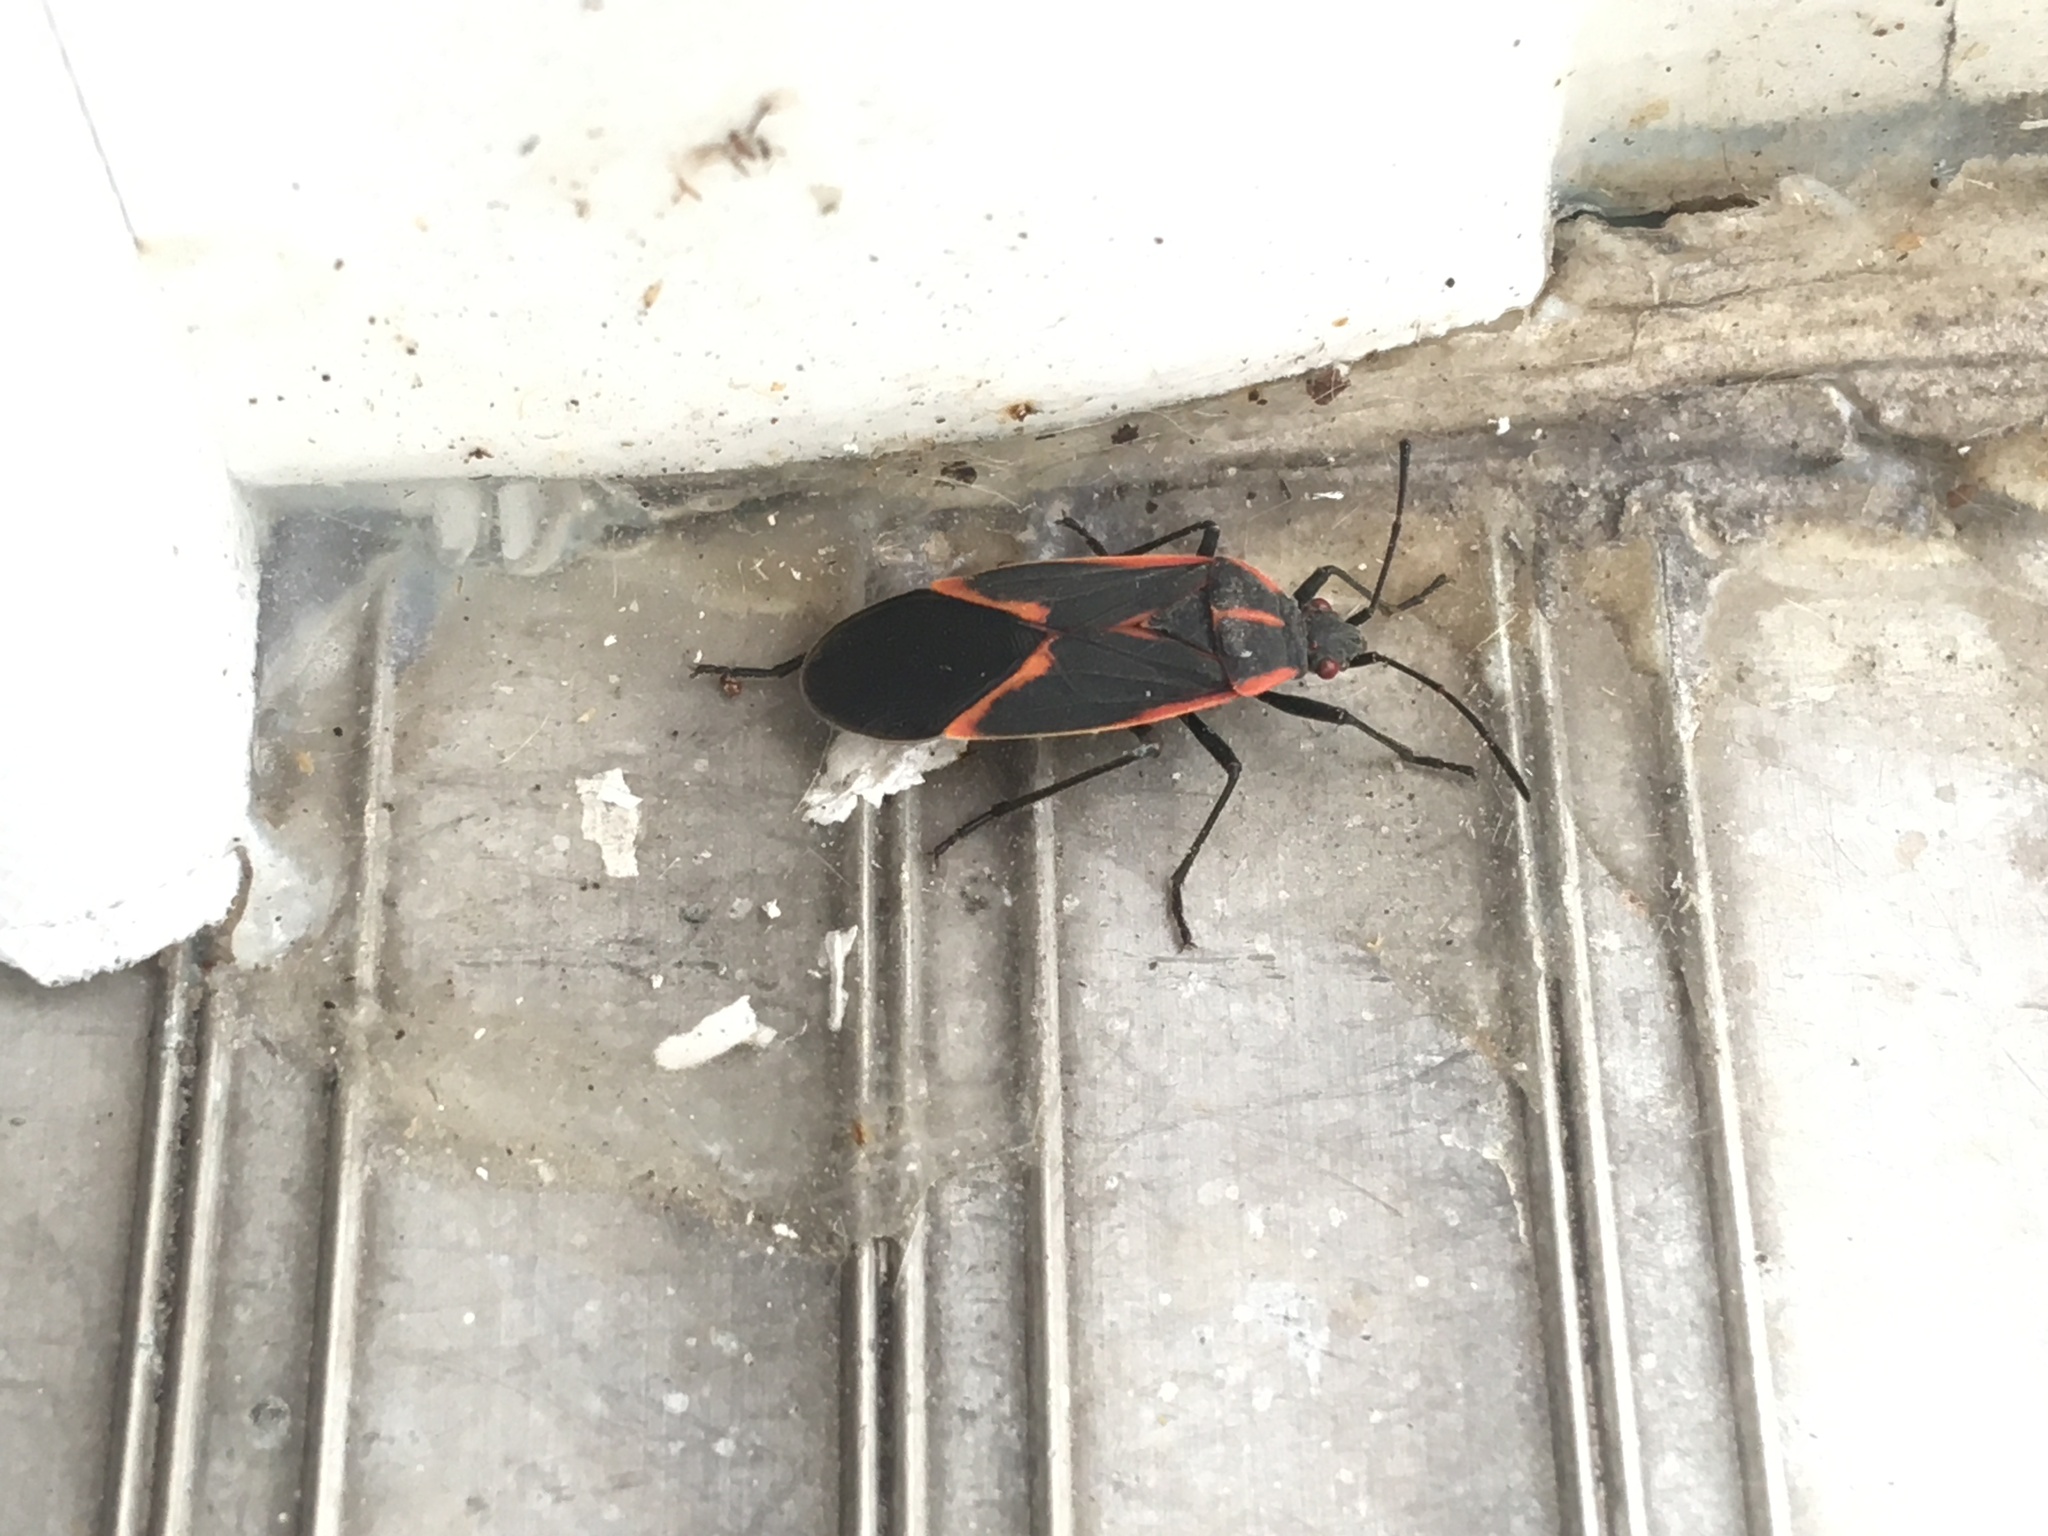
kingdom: Animalia
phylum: Arthropoda
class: Insecta
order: Hemiptera
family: Rhopalidae
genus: Boisea
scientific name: Boisea trivittata
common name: Boxelder bug
